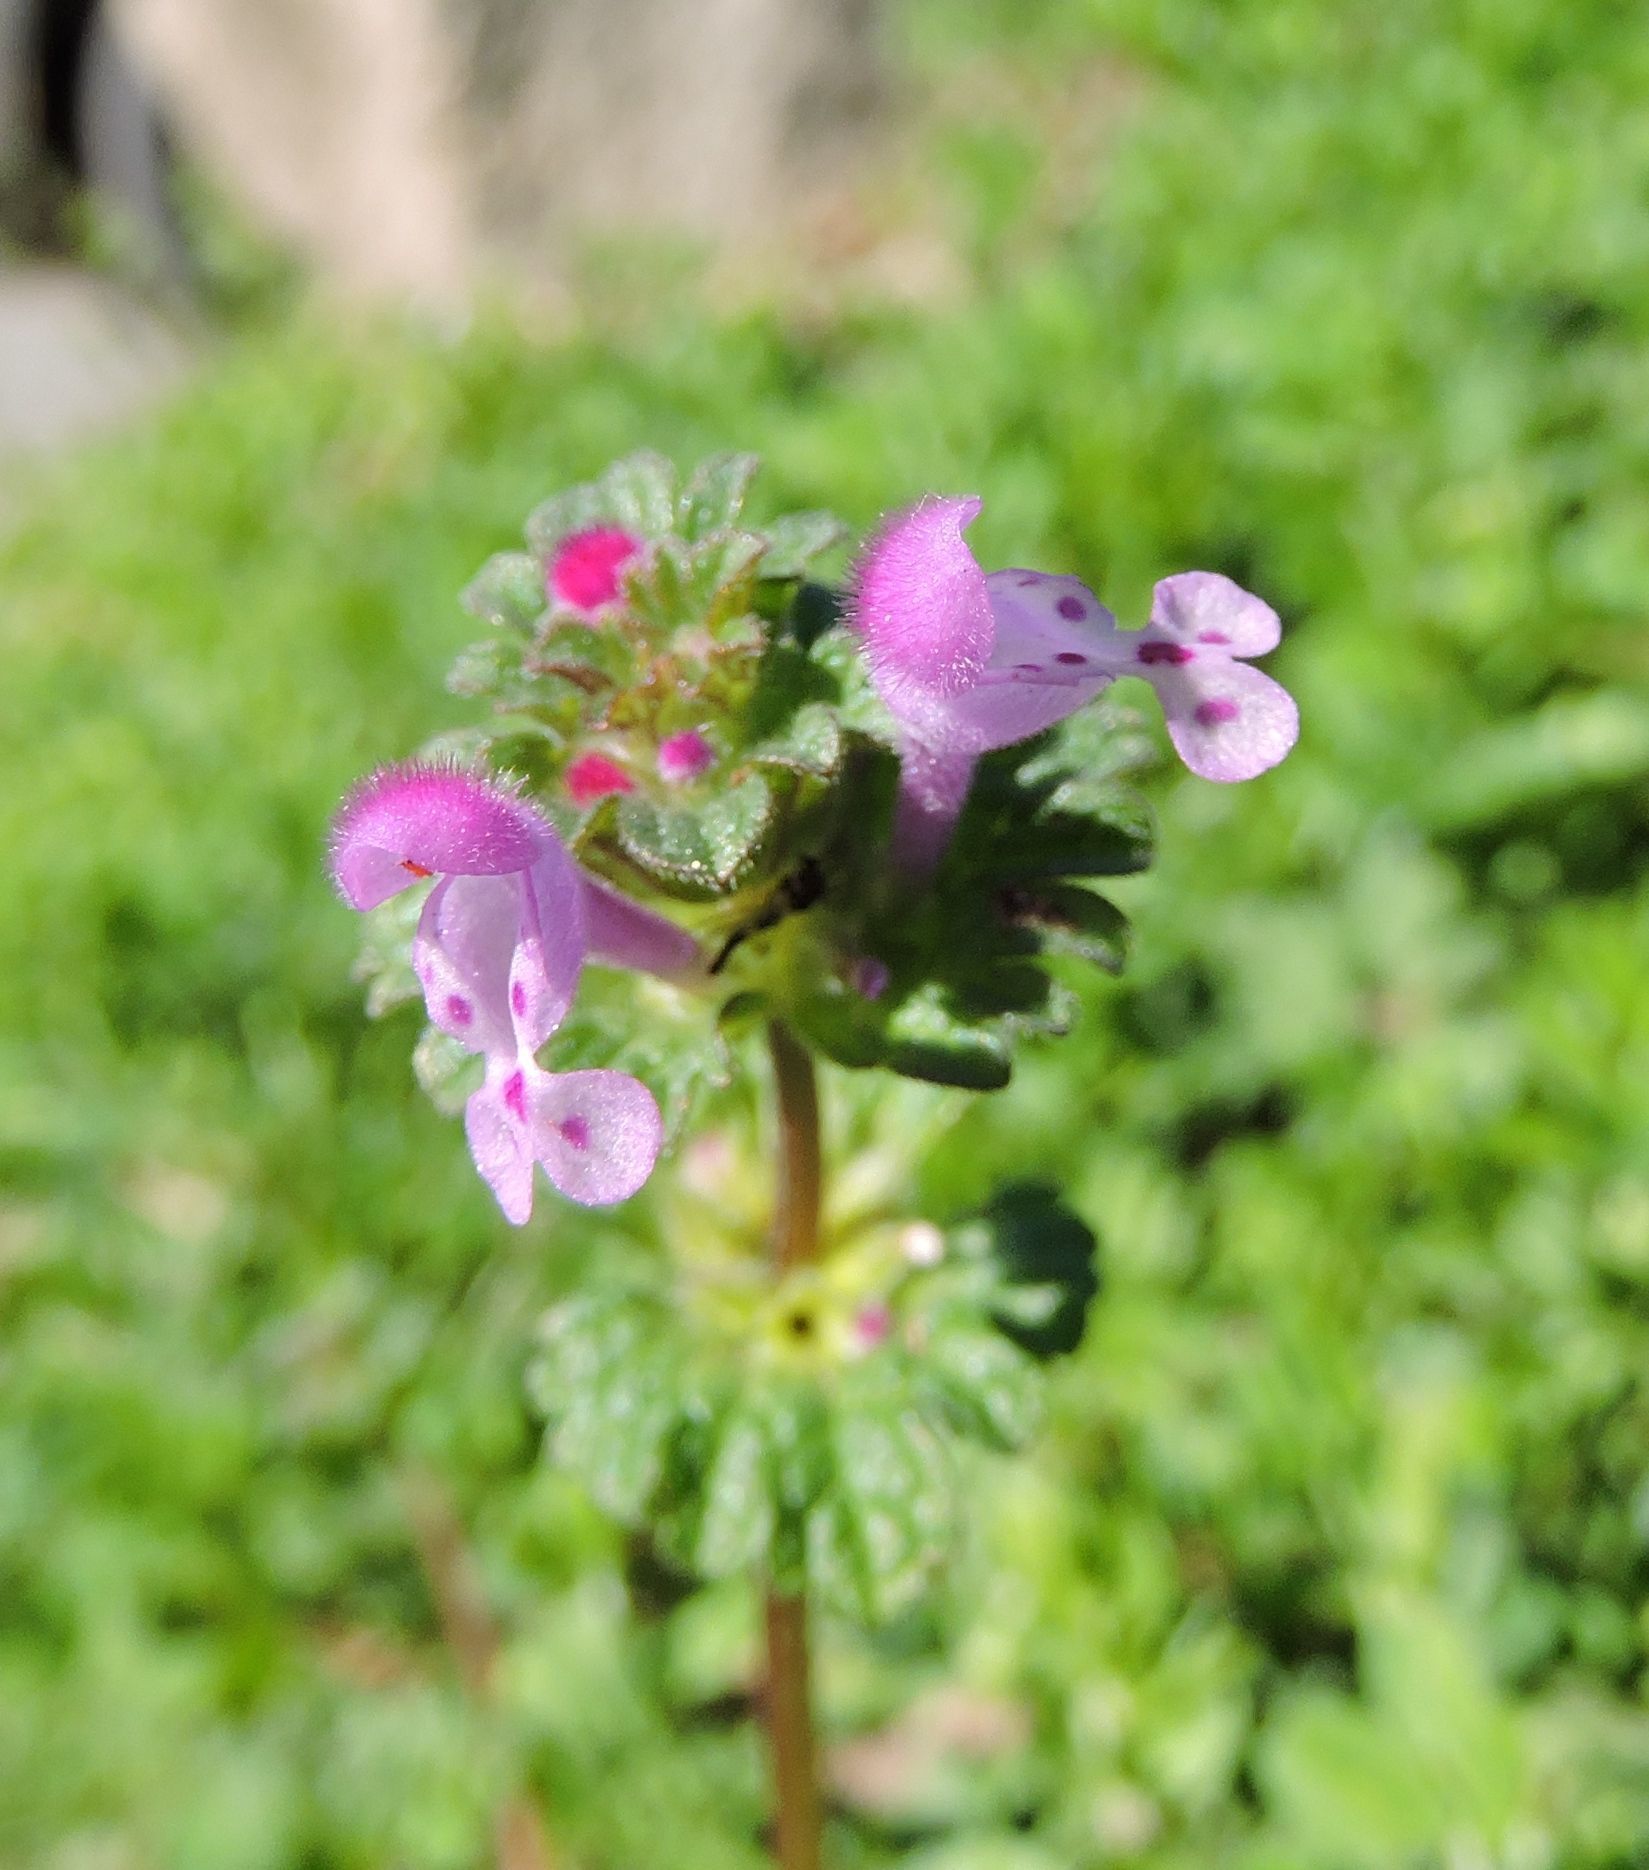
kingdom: Plantae
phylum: Tracheophyta
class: Magnoliopsida
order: Lamiales
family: Lamiaceae
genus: Lamium
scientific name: Lamium amplexicaule
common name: Henbit dead-nettle
